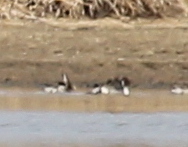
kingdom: Animalia
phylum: Chordata
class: Aves
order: Anseriformes
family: Anatidae
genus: Anas
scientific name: Anas acuta
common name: Northern pintail
